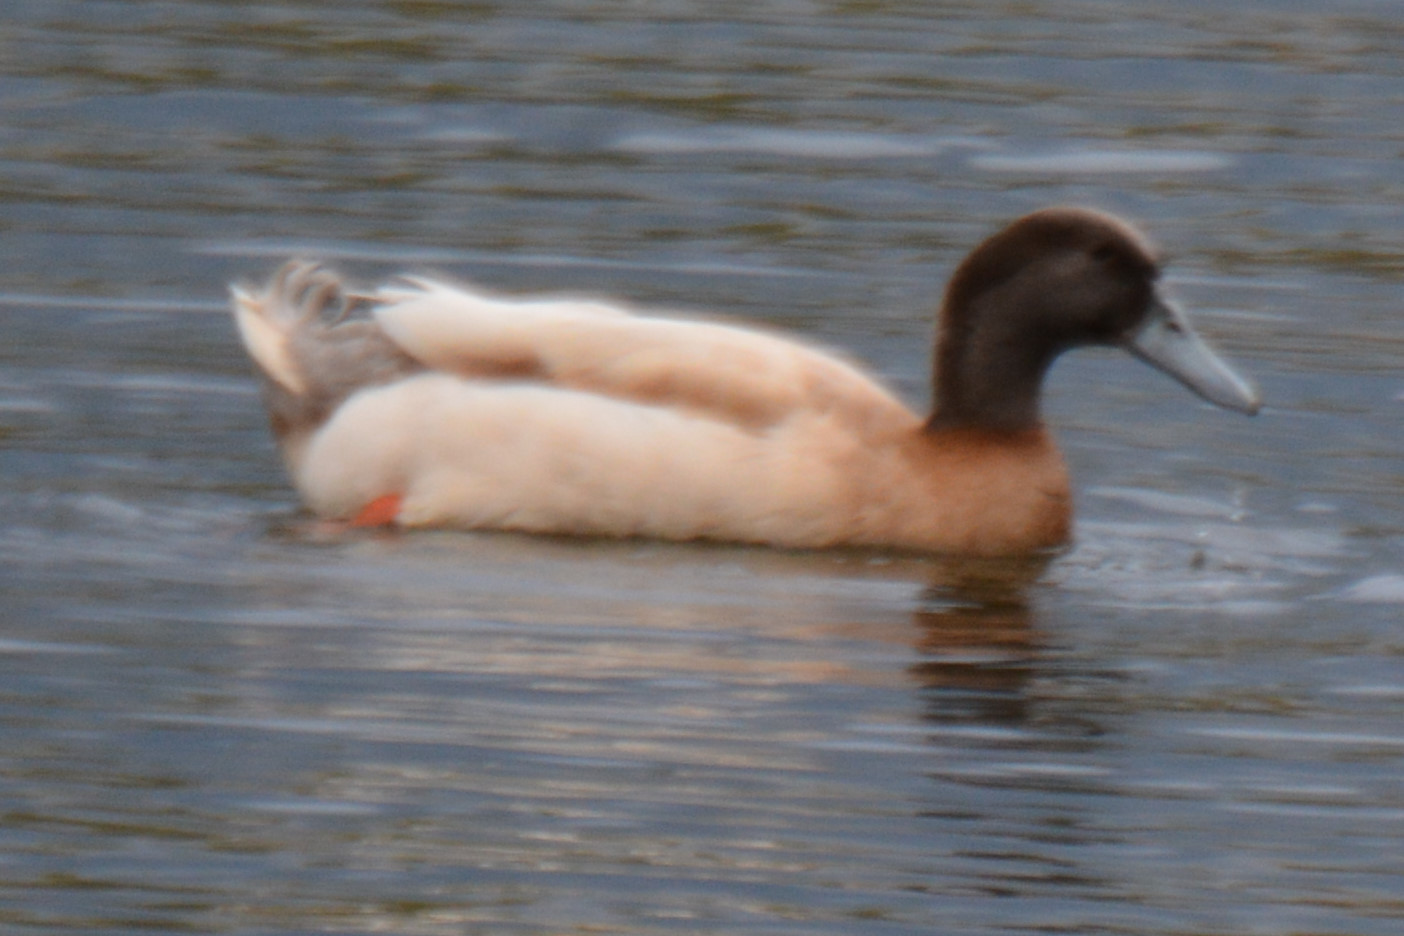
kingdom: Animalia
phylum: Chordata
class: Aves
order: Anseriformes
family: Anatidae
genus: Anas
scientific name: Anas platyrhynchos
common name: Mallard
